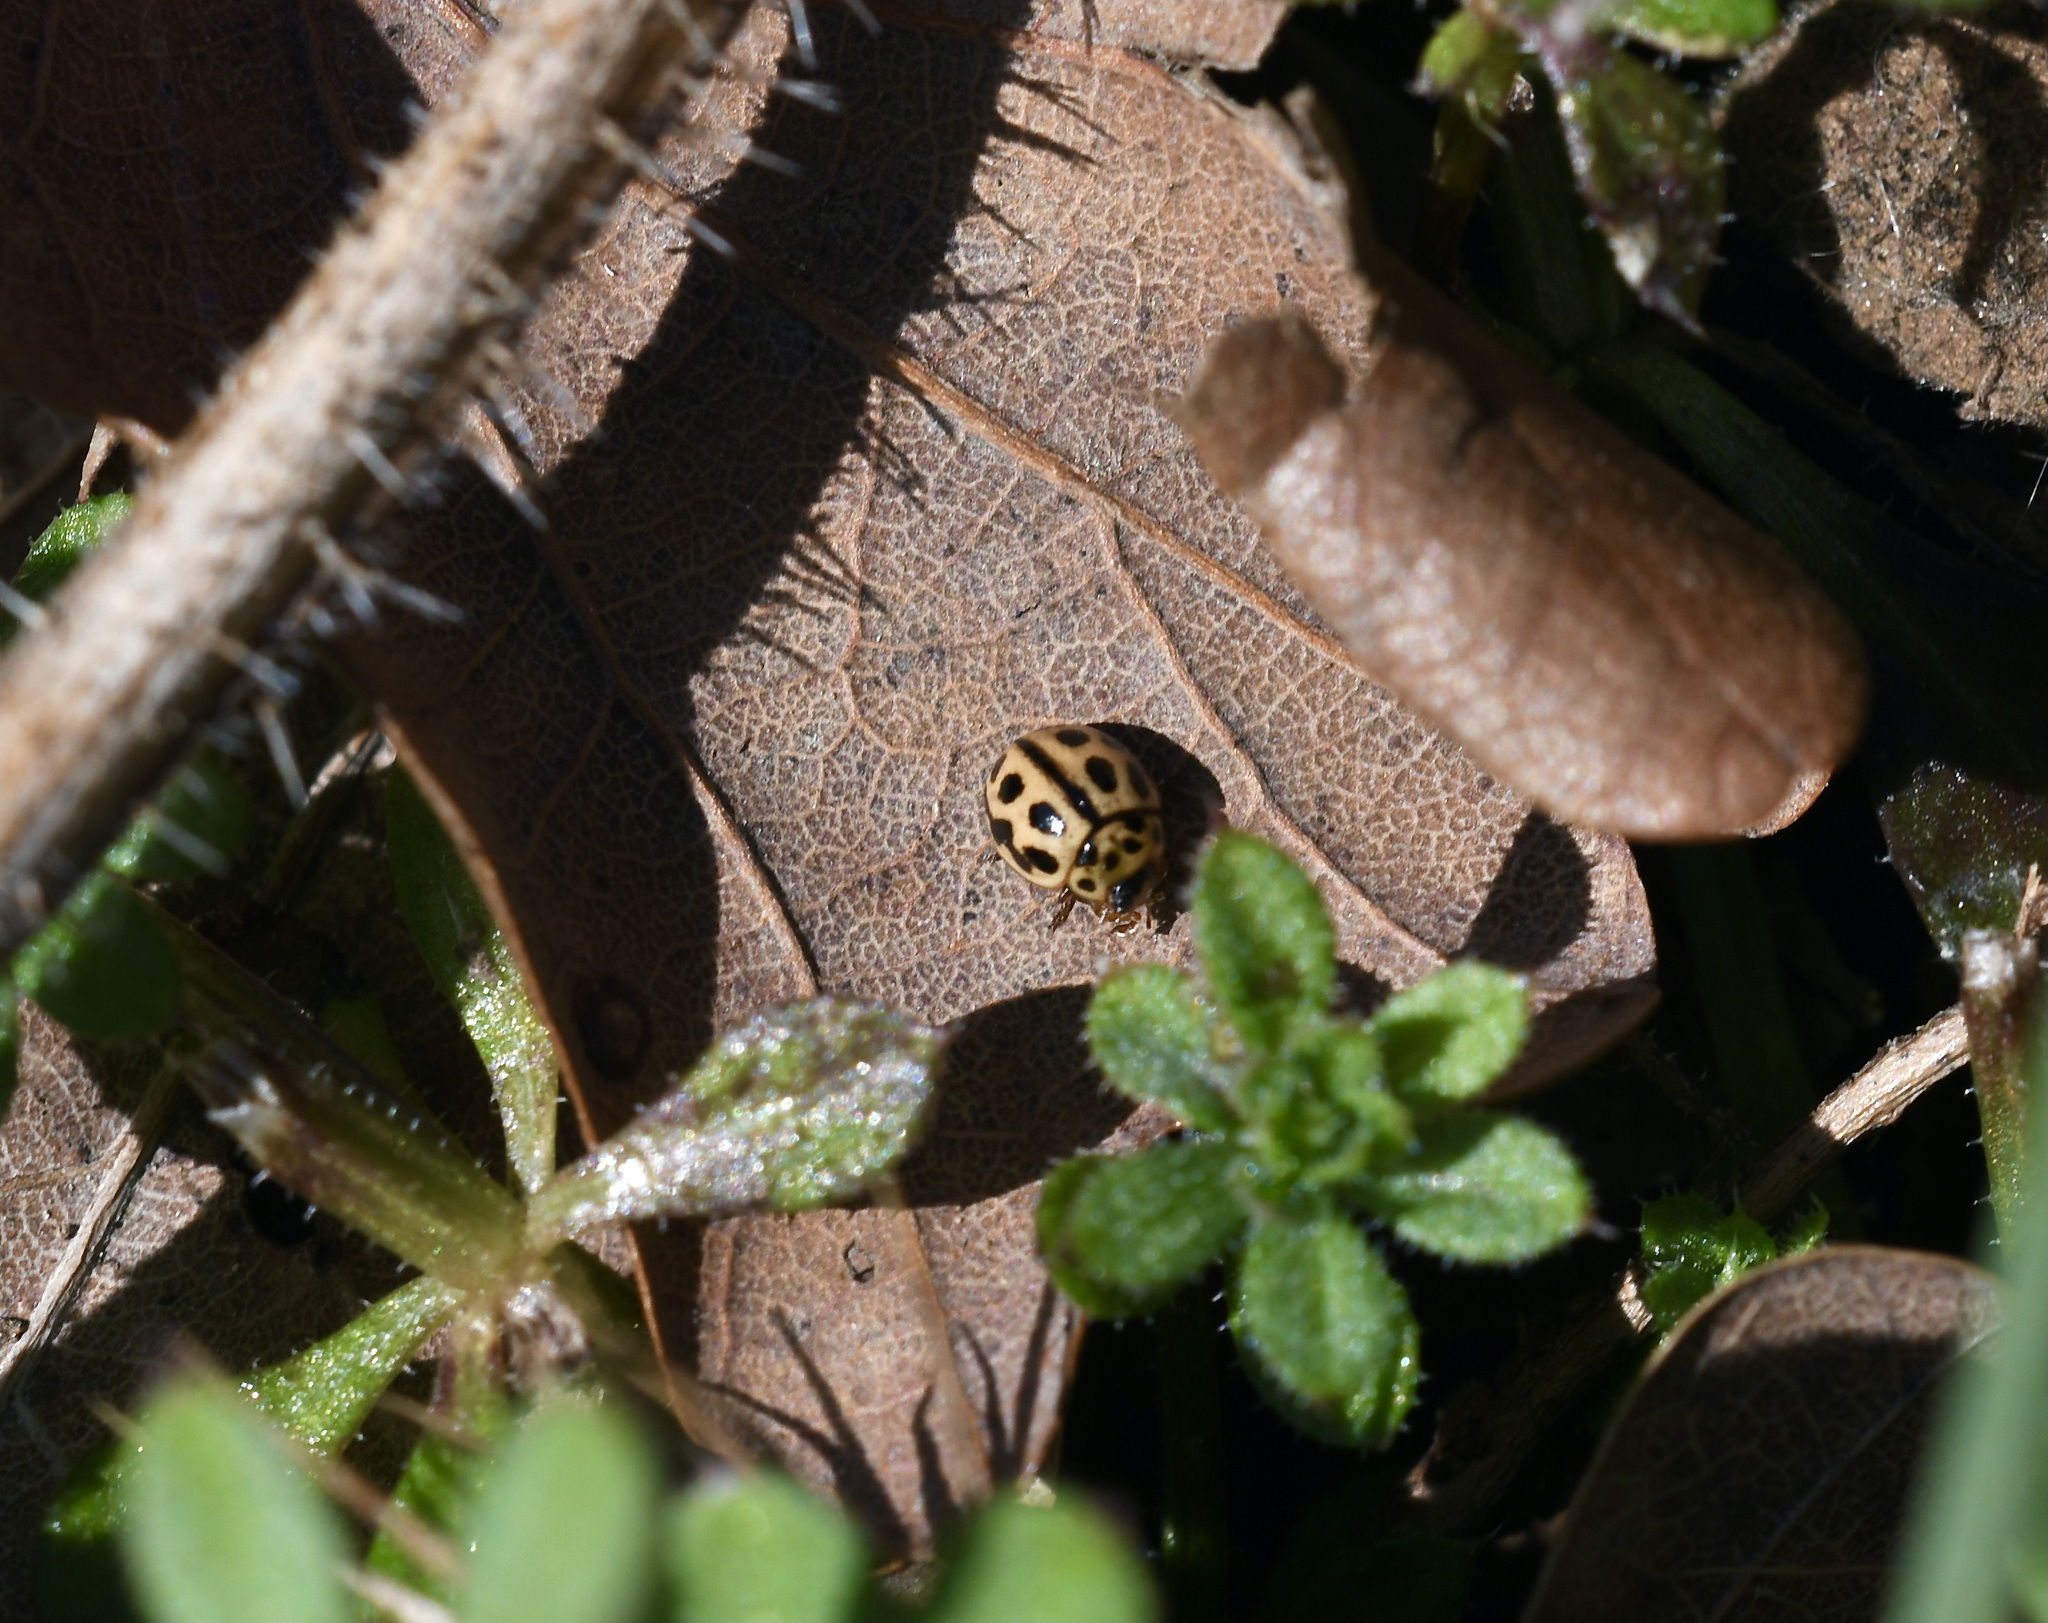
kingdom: Animalia
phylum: Arthropoda
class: Insecta
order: Coleoptera
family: Coccinellidae
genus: Tytthaspis
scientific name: Tytthaspis sedecimpunctata
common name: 16-spot ladybird
